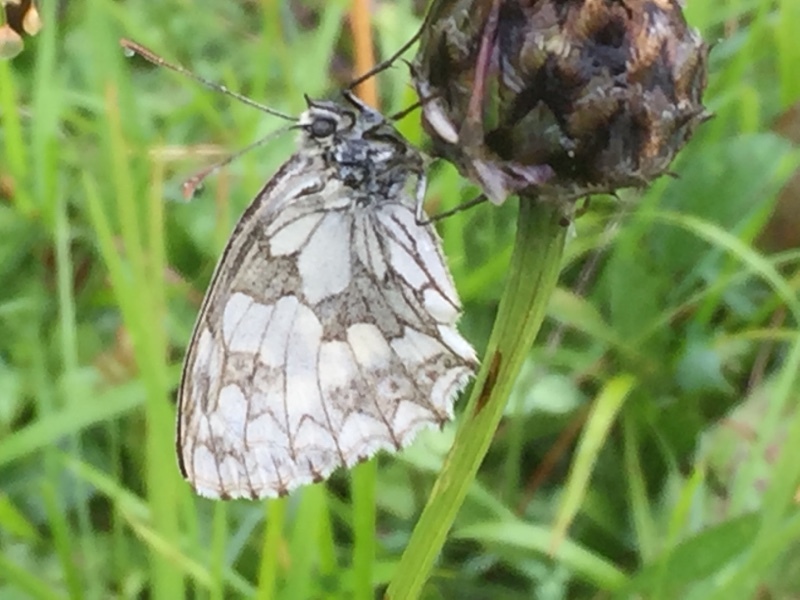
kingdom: Animalia
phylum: Arthropoda
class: Insecta
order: Lepidoptera
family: Nymphalidae
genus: Melanargia
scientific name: Melanargia galathea
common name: Marbled white
